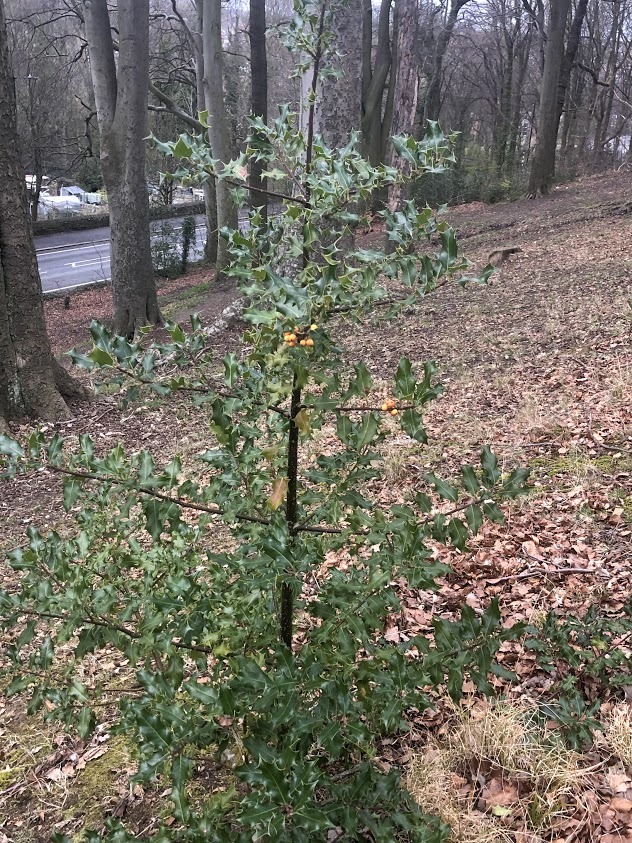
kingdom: Plantae
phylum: Tracheophyta
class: Magnoliopsida
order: Aquifoliales
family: Aquifoliaceae
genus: Ilex
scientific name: Ilex aquifolium
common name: English holly
